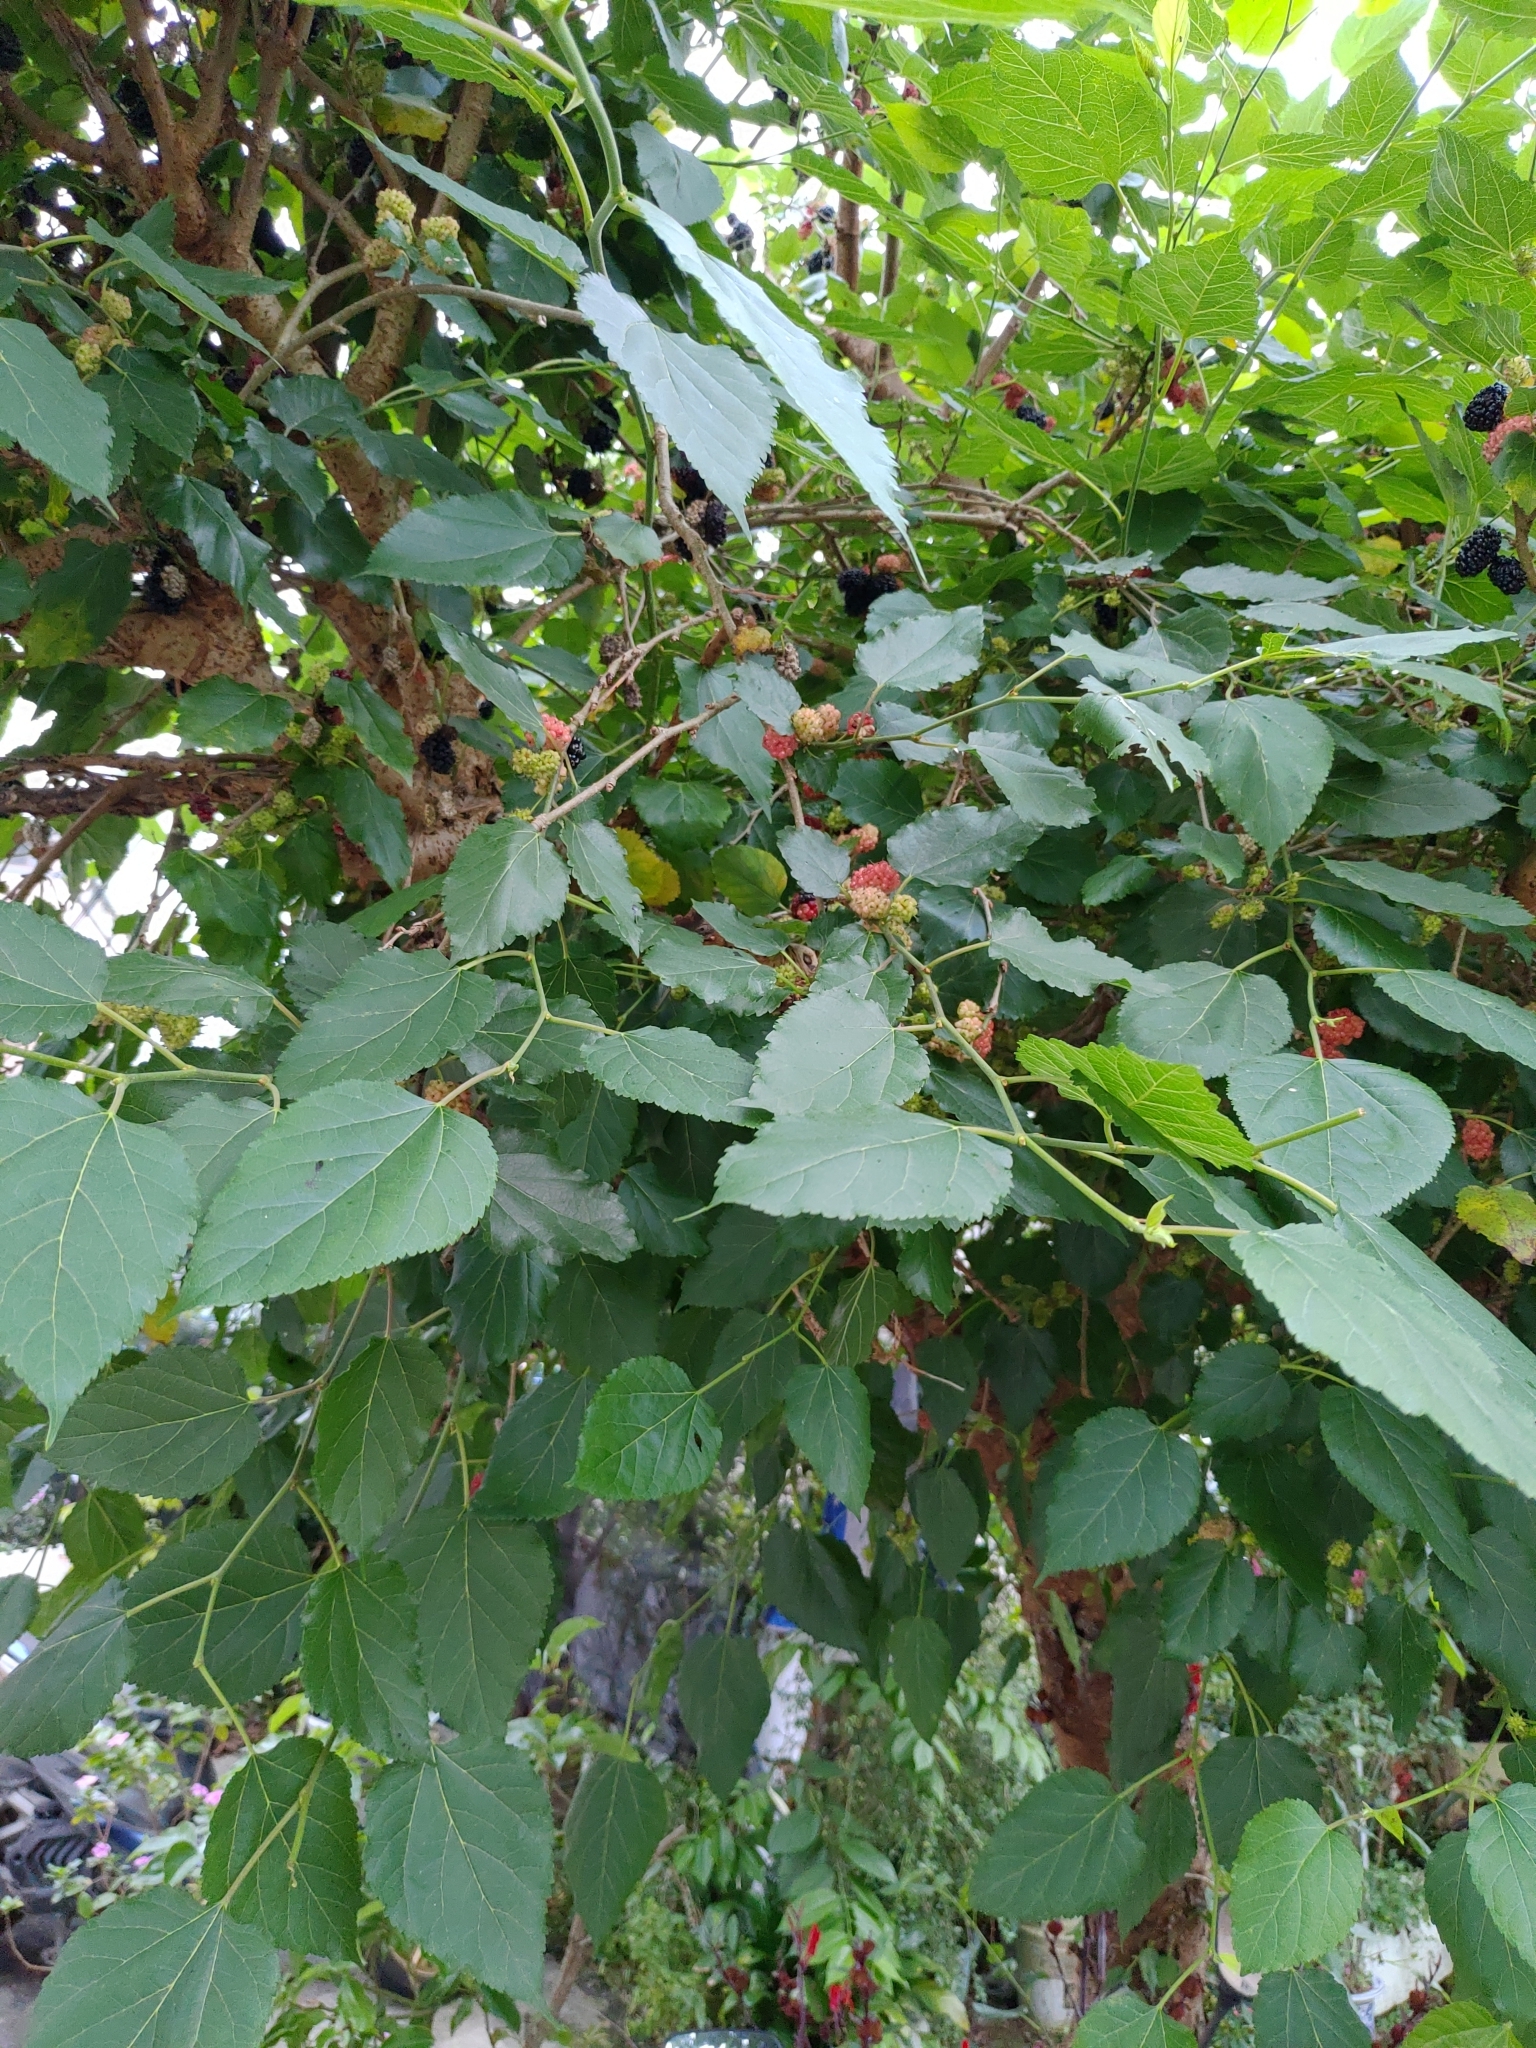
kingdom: Plantae
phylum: Tracheophyta
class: Magnoliopsida
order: Rosales
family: Moraceae
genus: Morus
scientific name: Morus indica
